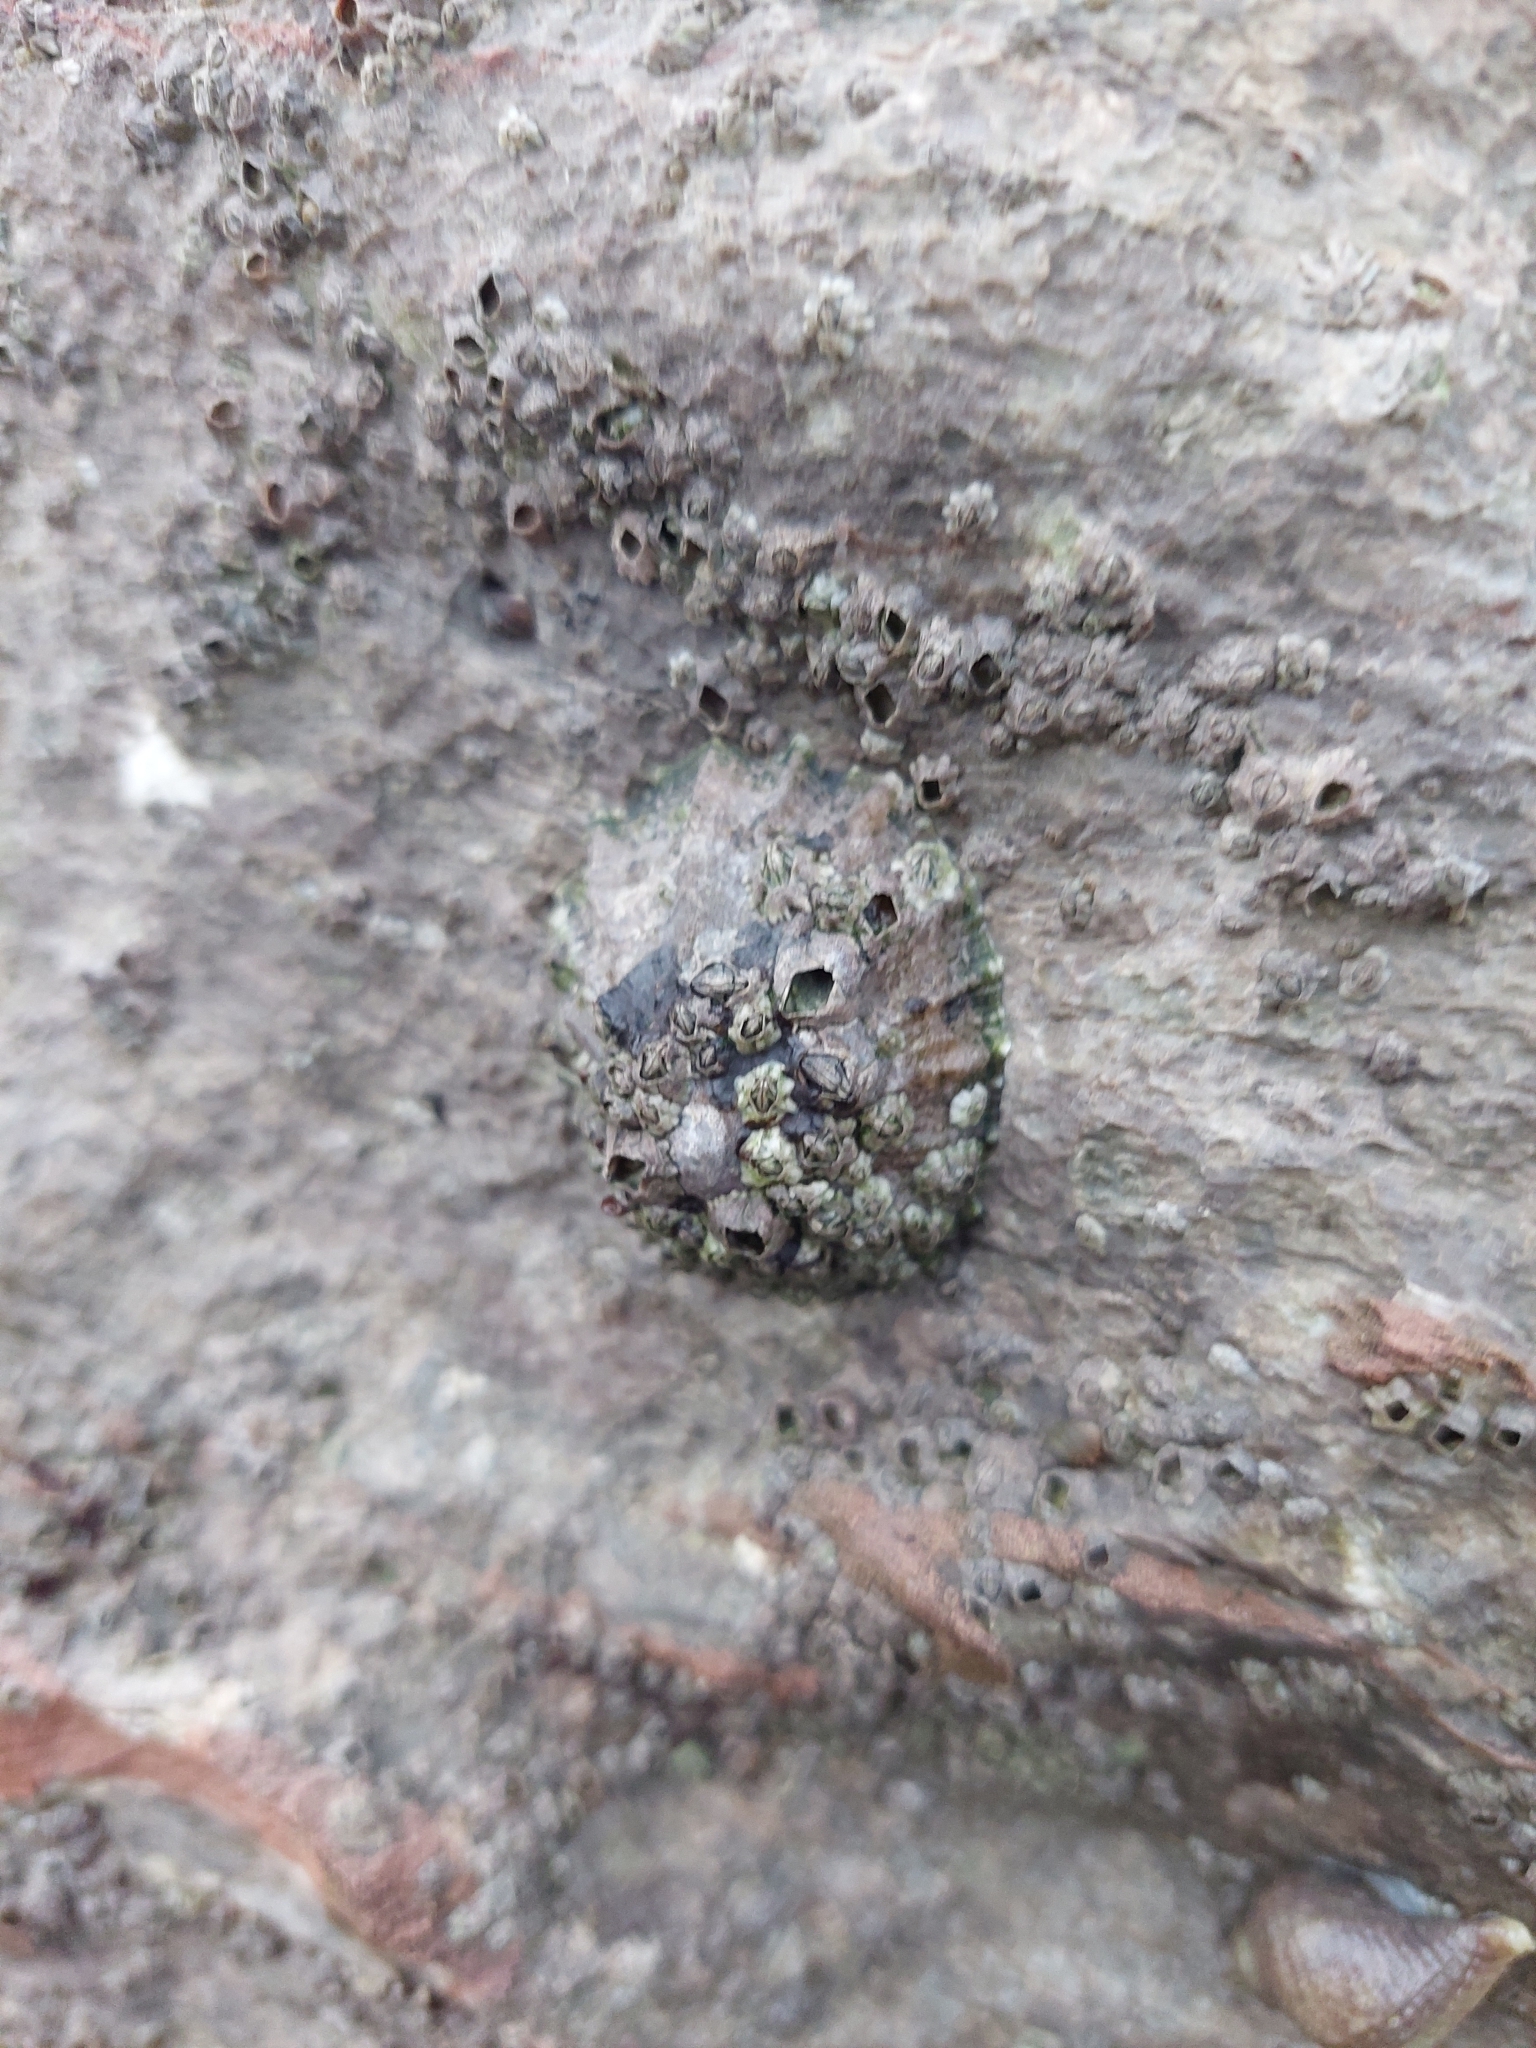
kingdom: Animalia
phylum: Mollusca
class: Gastropoda
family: Patellidae
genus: Patella
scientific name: Patella
